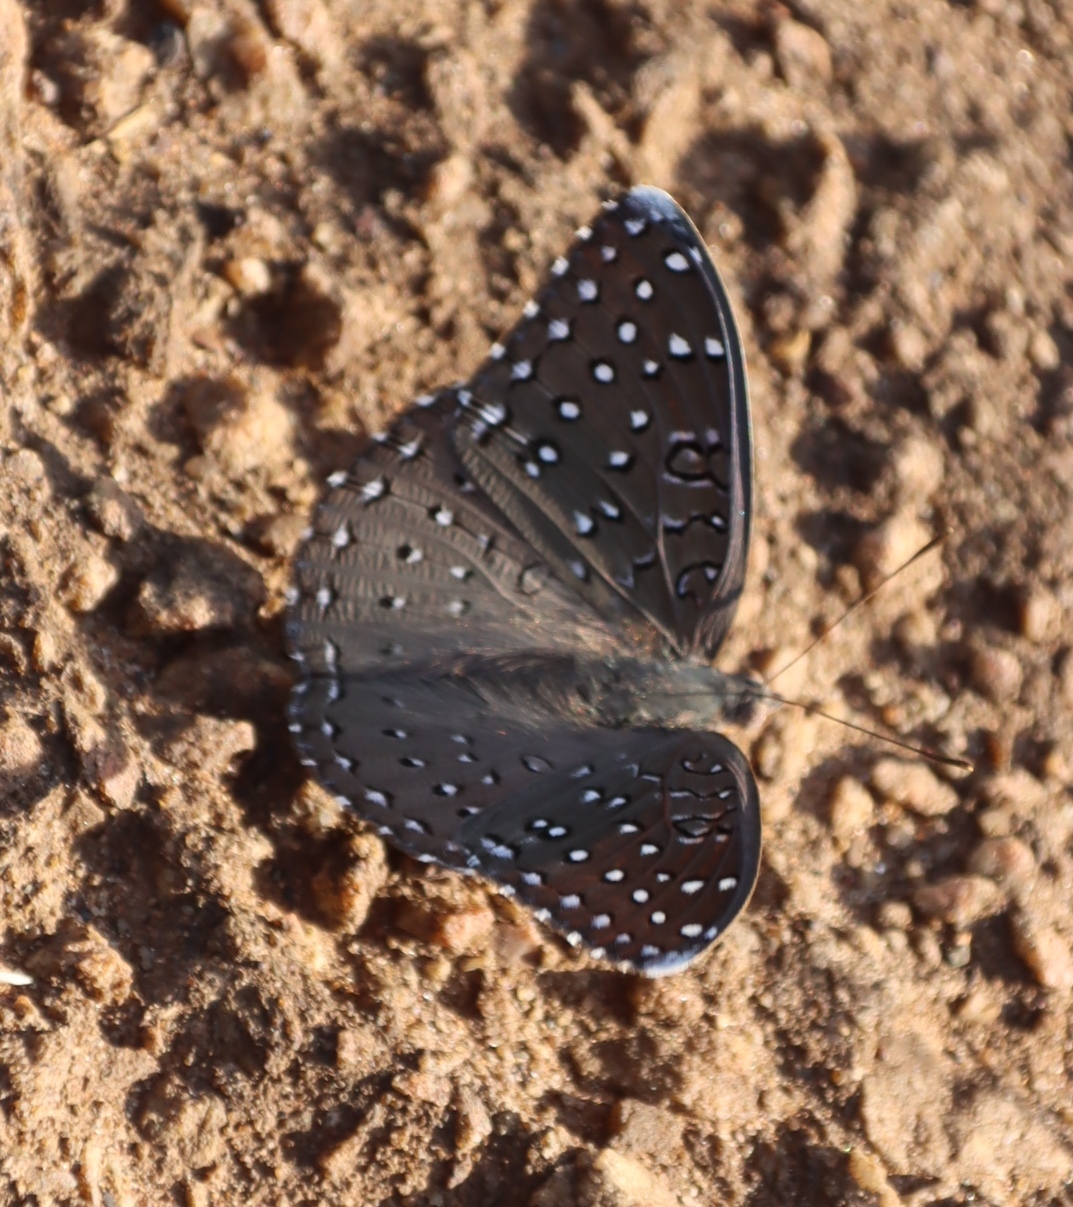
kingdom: Animalia
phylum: Arthropoda
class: Insecta
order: Lepidoptera
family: Nymphalidae
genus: Hamanumida
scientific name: Hamanumida daedalus
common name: Guinea-fowl butterfly
